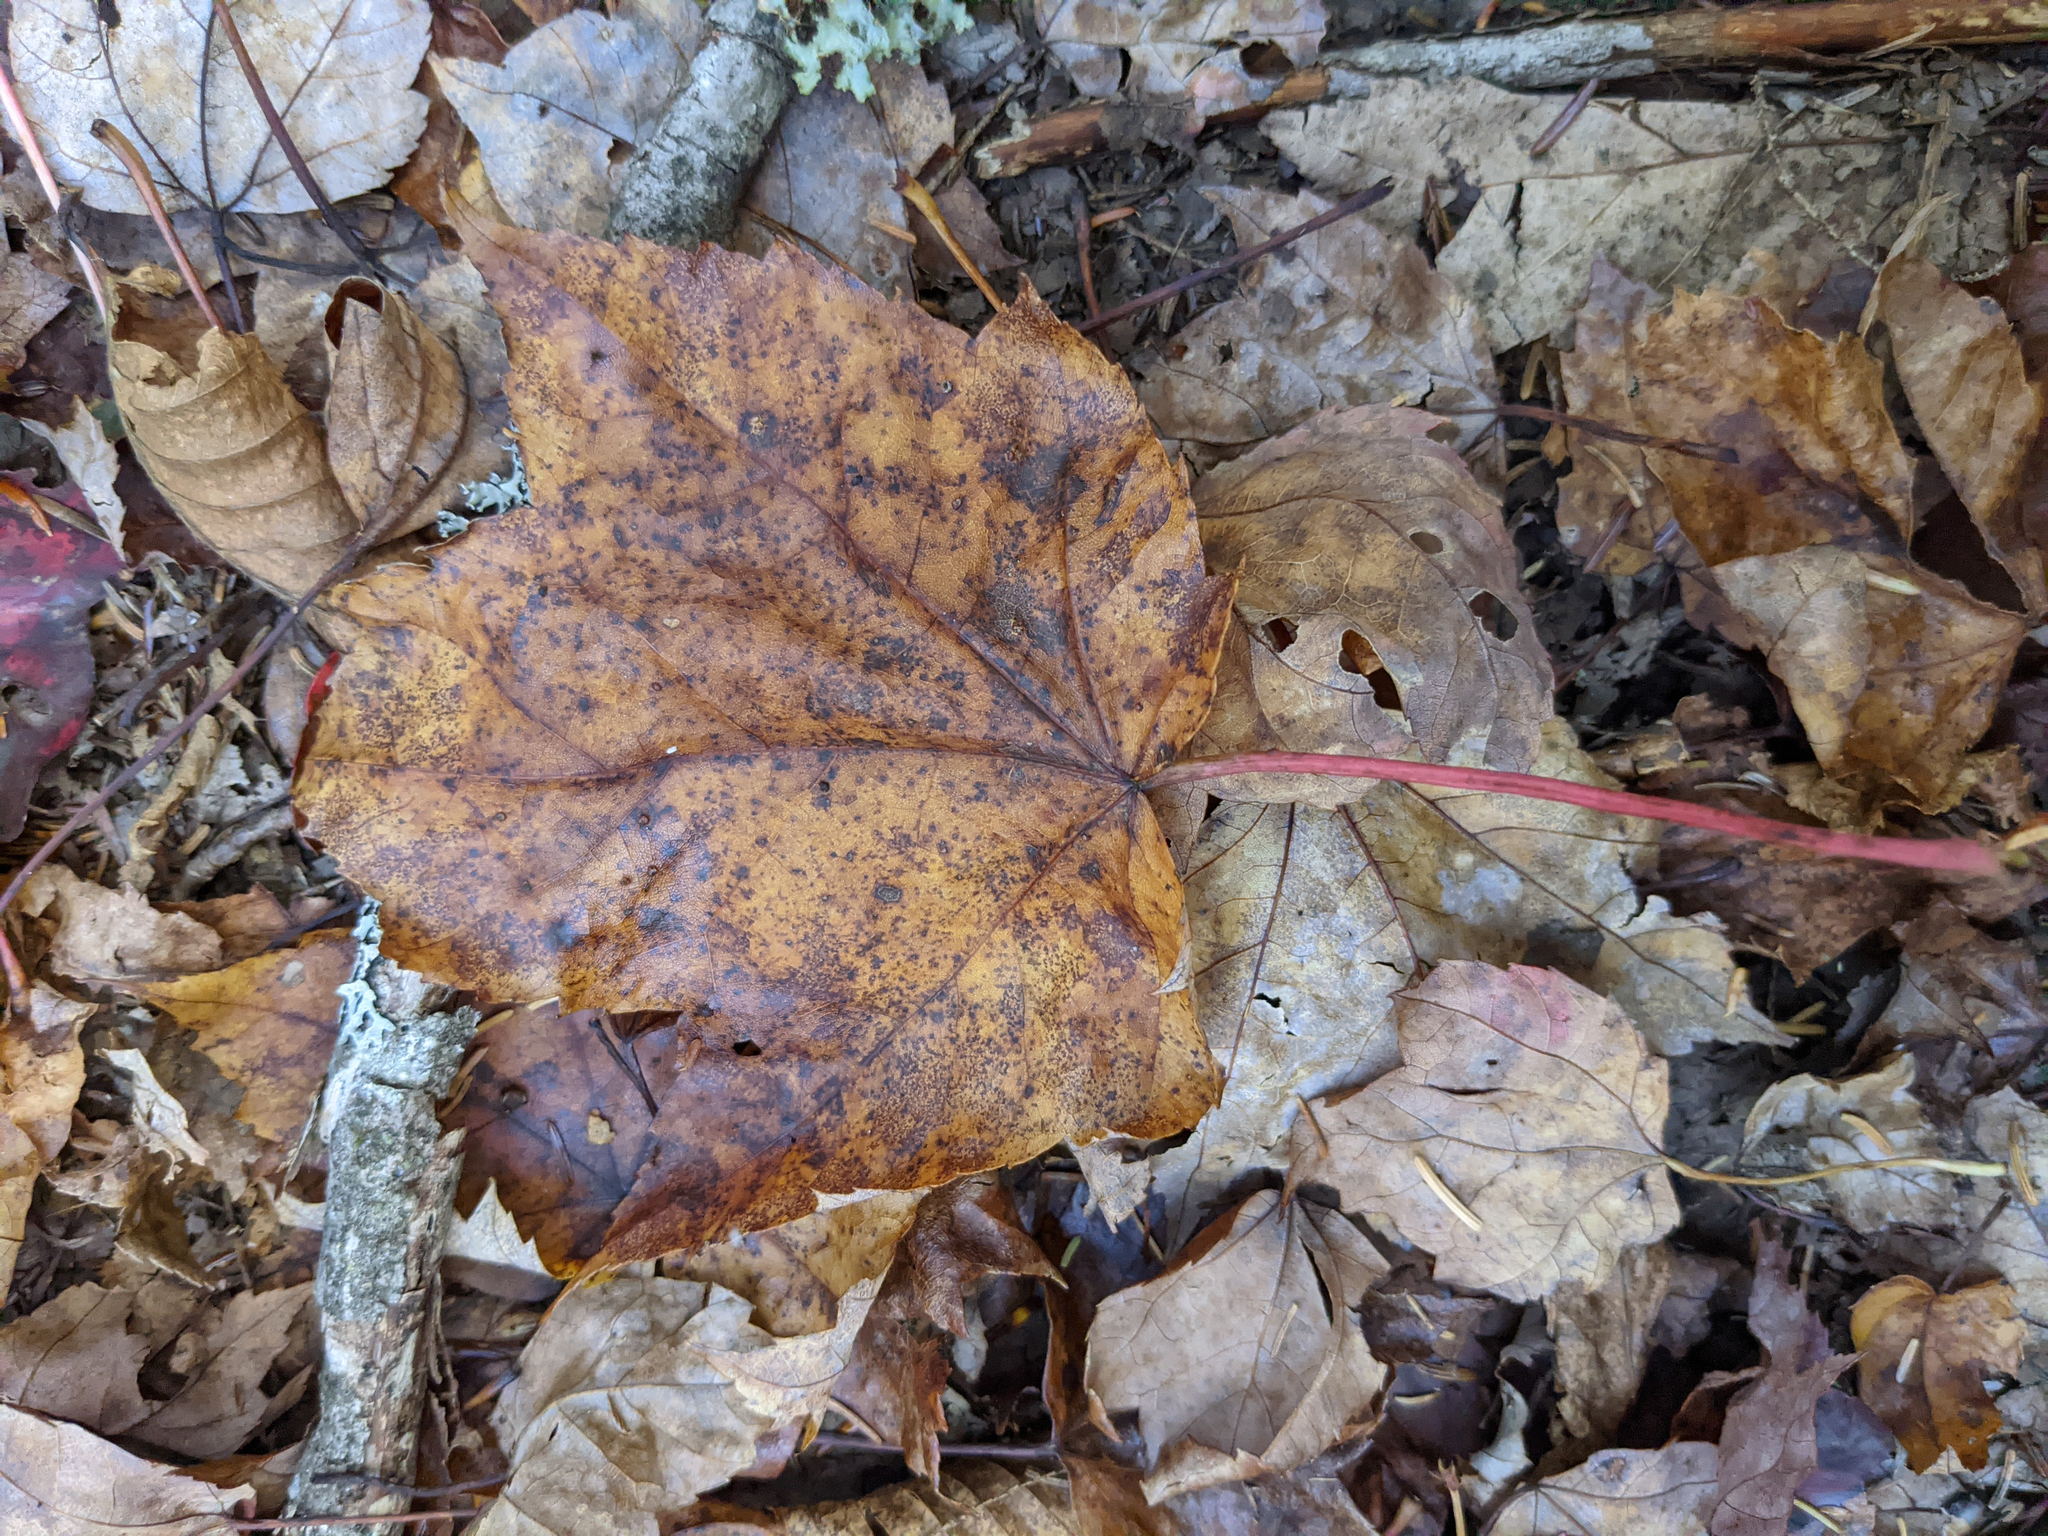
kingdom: Plantae
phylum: Tracheophyta
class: Magnoliopsida
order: Sapindales
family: Sapindaceae
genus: Acer
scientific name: Acer rubrum
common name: Red maple
